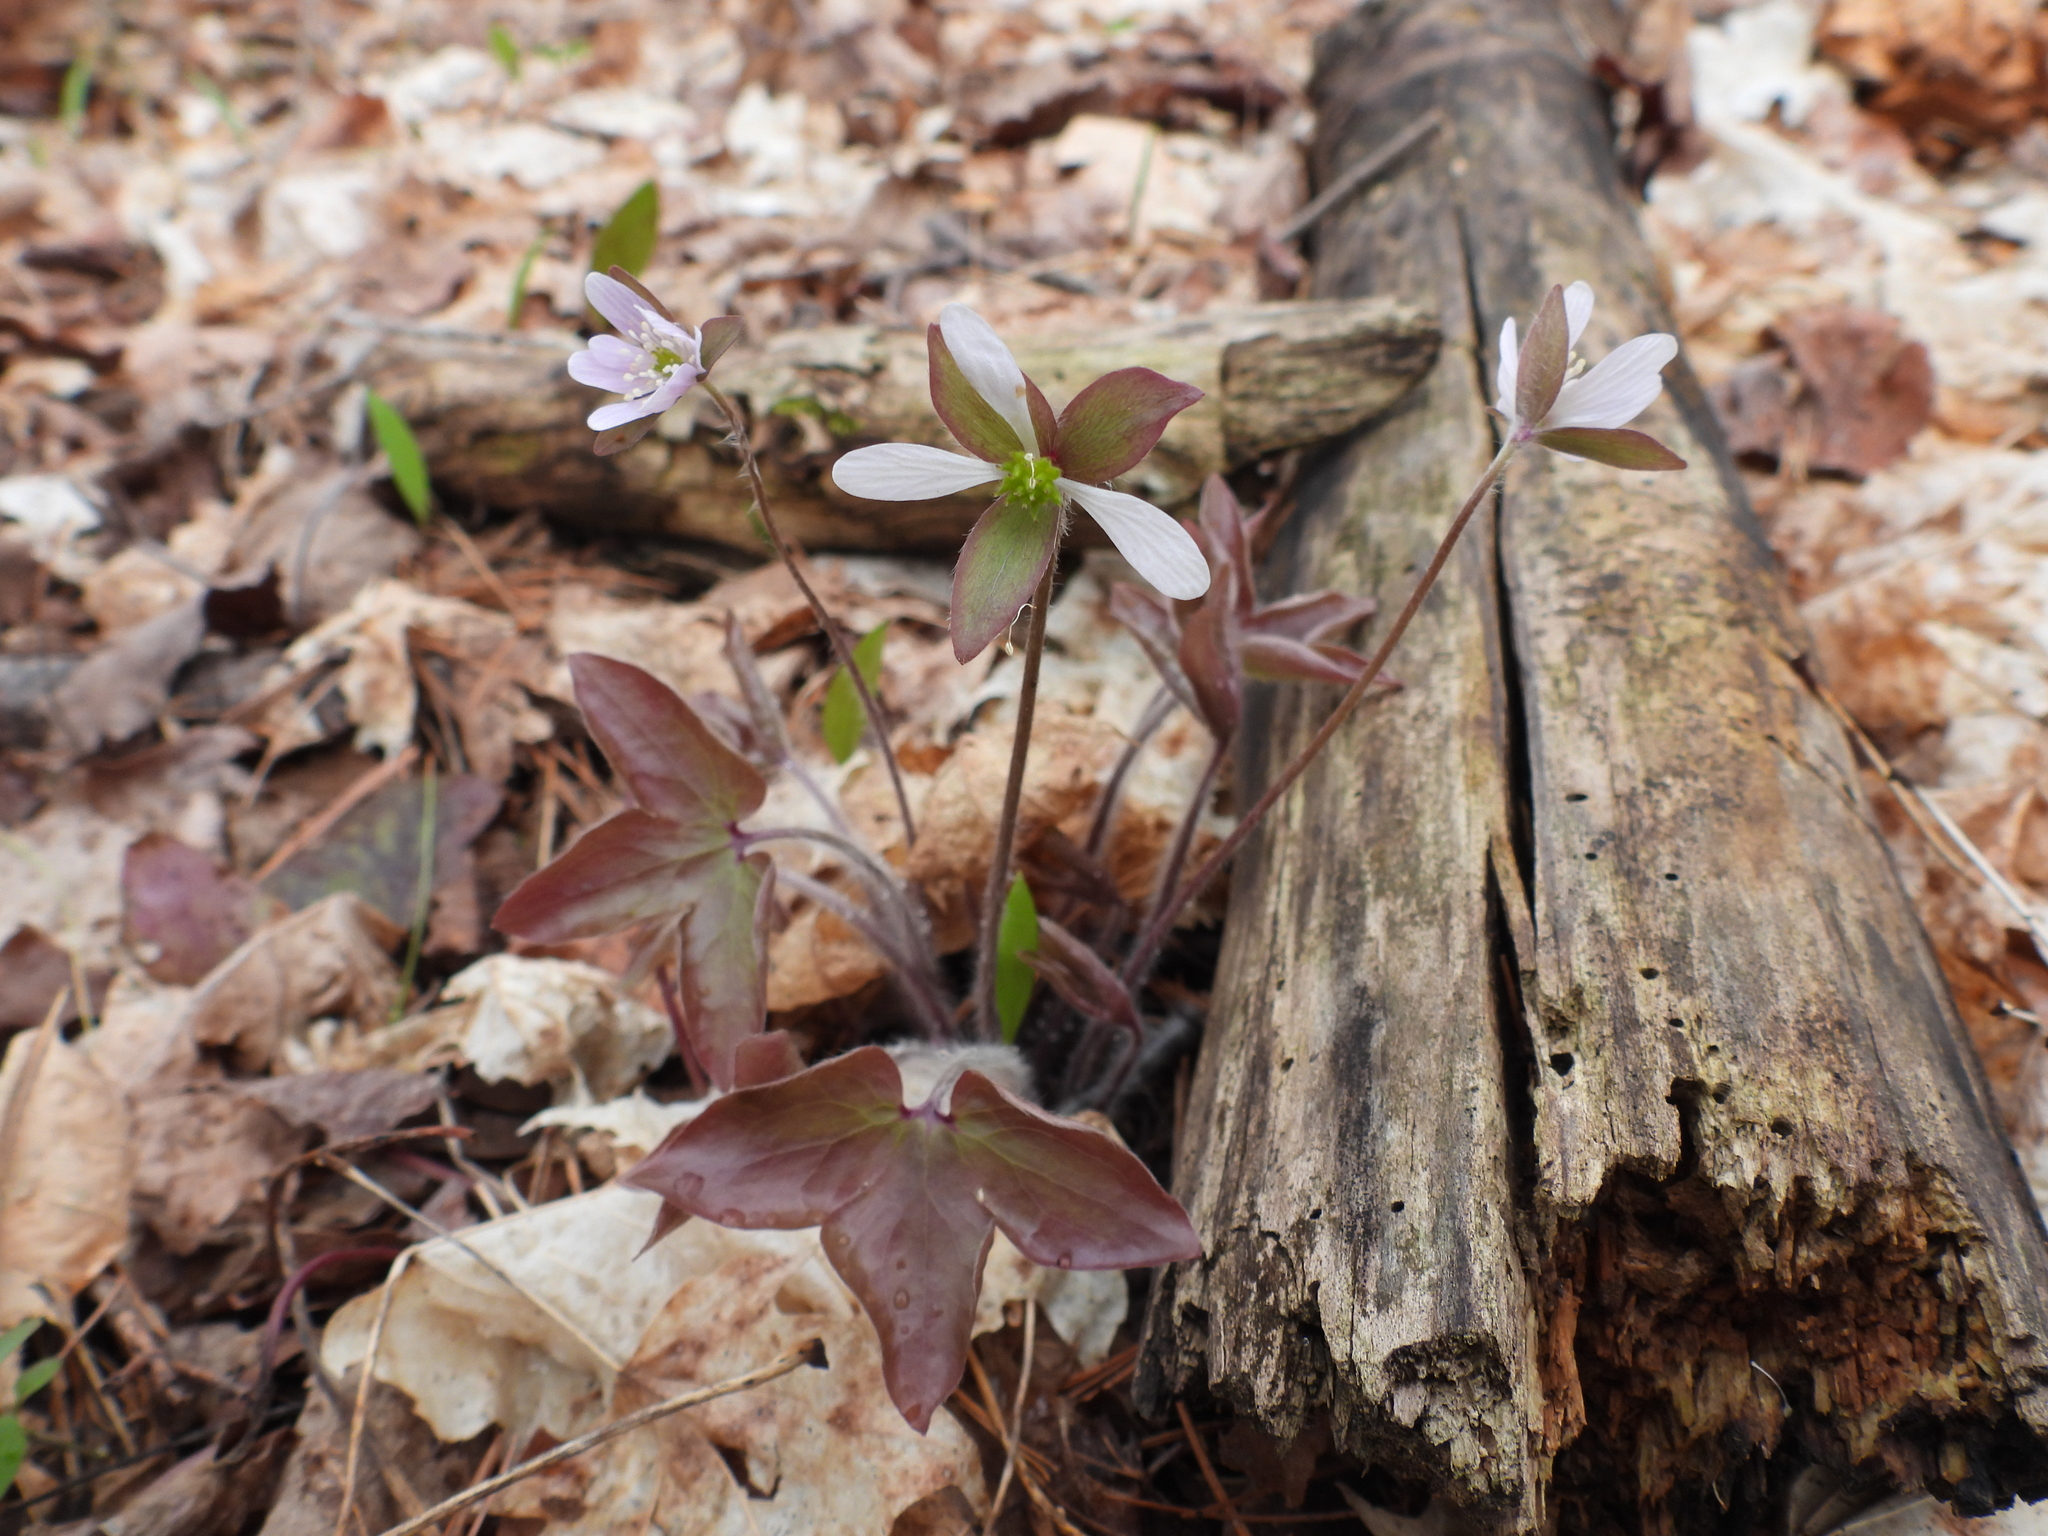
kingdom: Plantae
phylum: Tracheophyta
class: Magnoliopsida
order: Ranunculales
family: Ranunculaceae
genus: Hepatica
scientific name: Hepatica acutiloba
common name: Sharp-lobed hepatica
